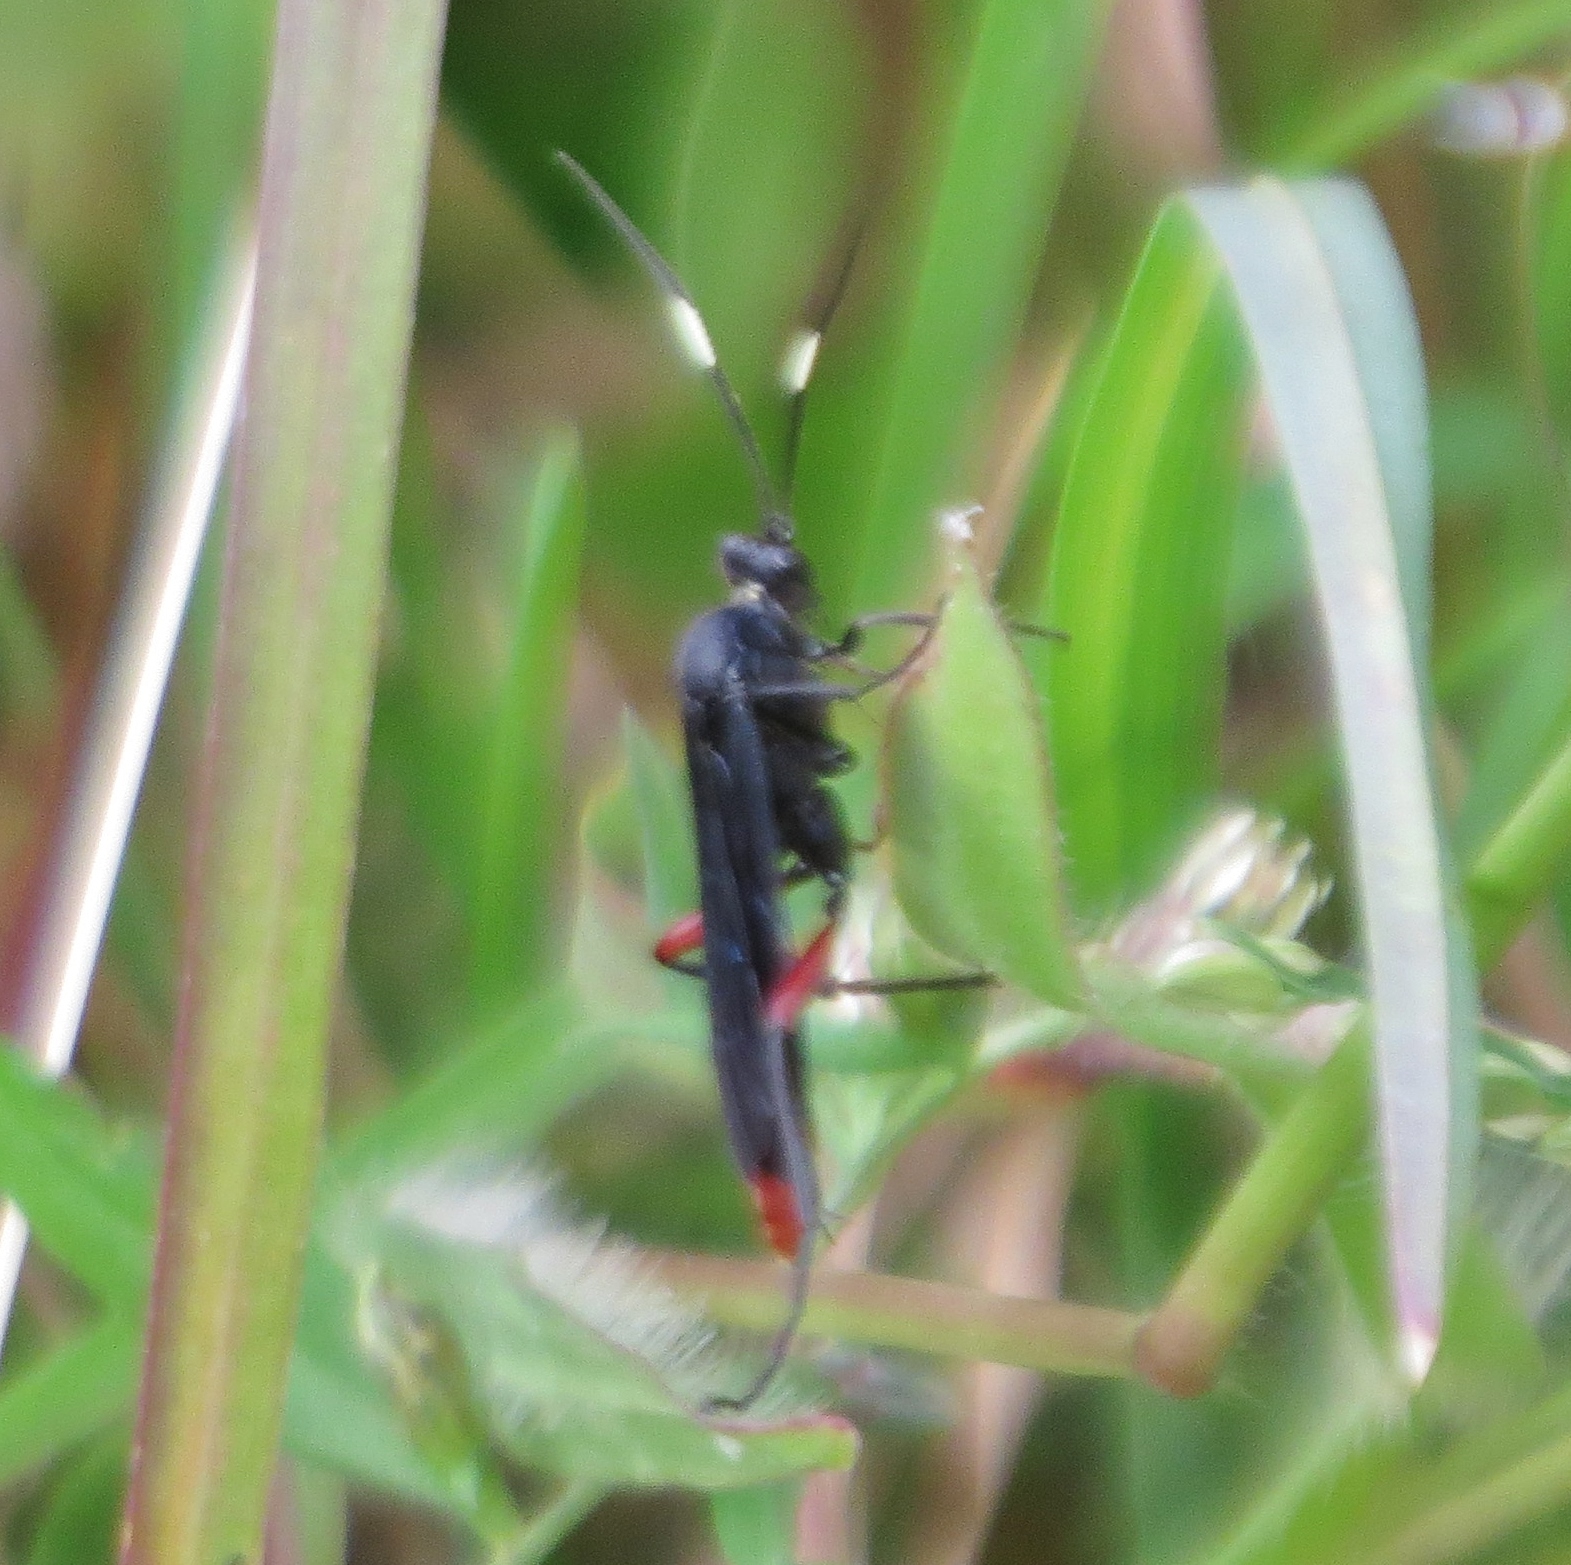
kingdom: Animalia
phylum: Arthropoda
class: Insecta
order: Hymenoptera
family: Ichneumonidae
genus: Limonethe
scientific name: Limonethe maurator
